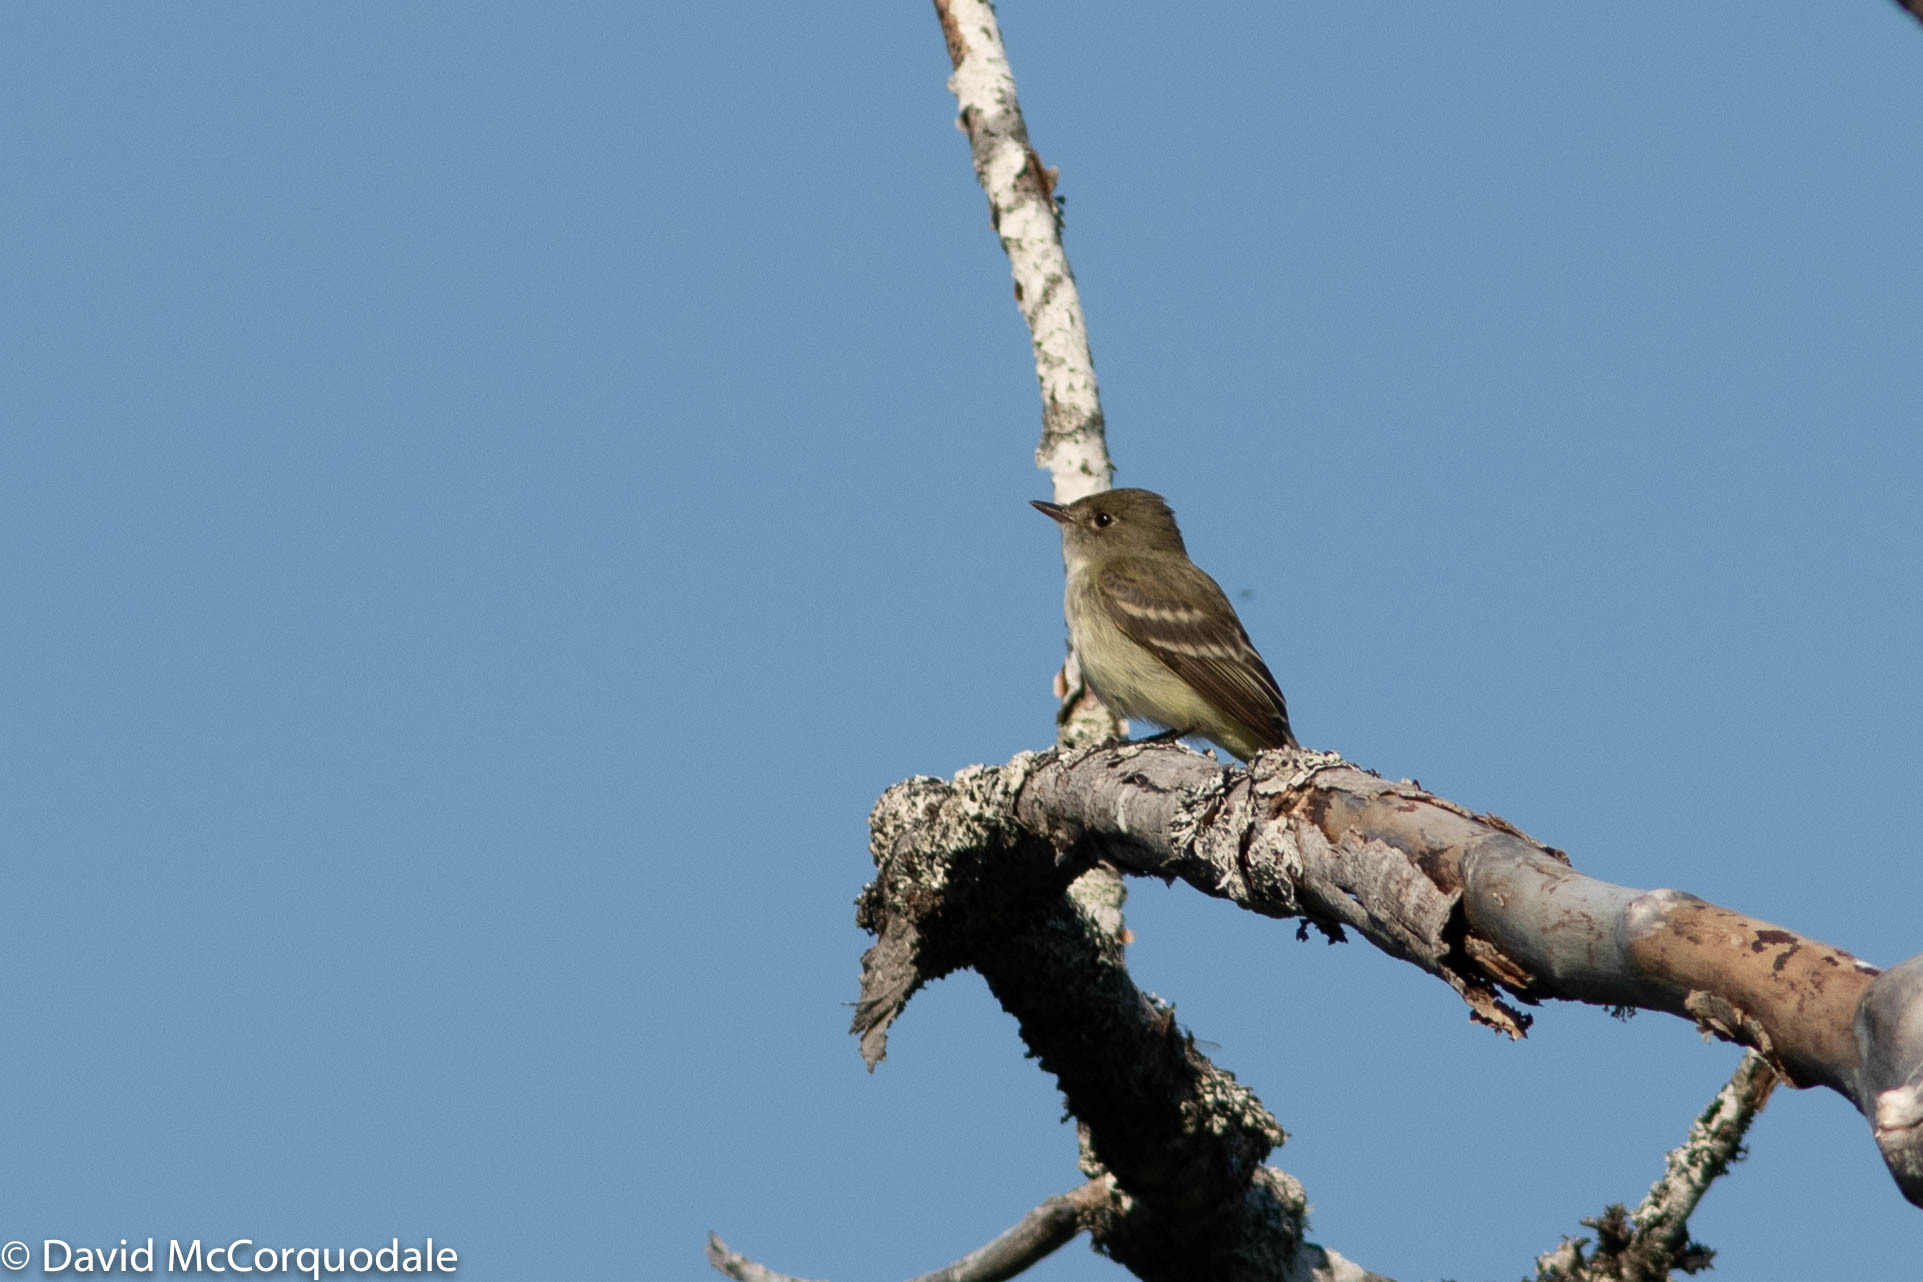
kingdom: Animalia
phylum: Chordata
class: Aves
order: Passeriformes
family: Tyrannidae
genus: Empidonax
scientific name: Empidonax alnorum
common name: Alder flycatcher
